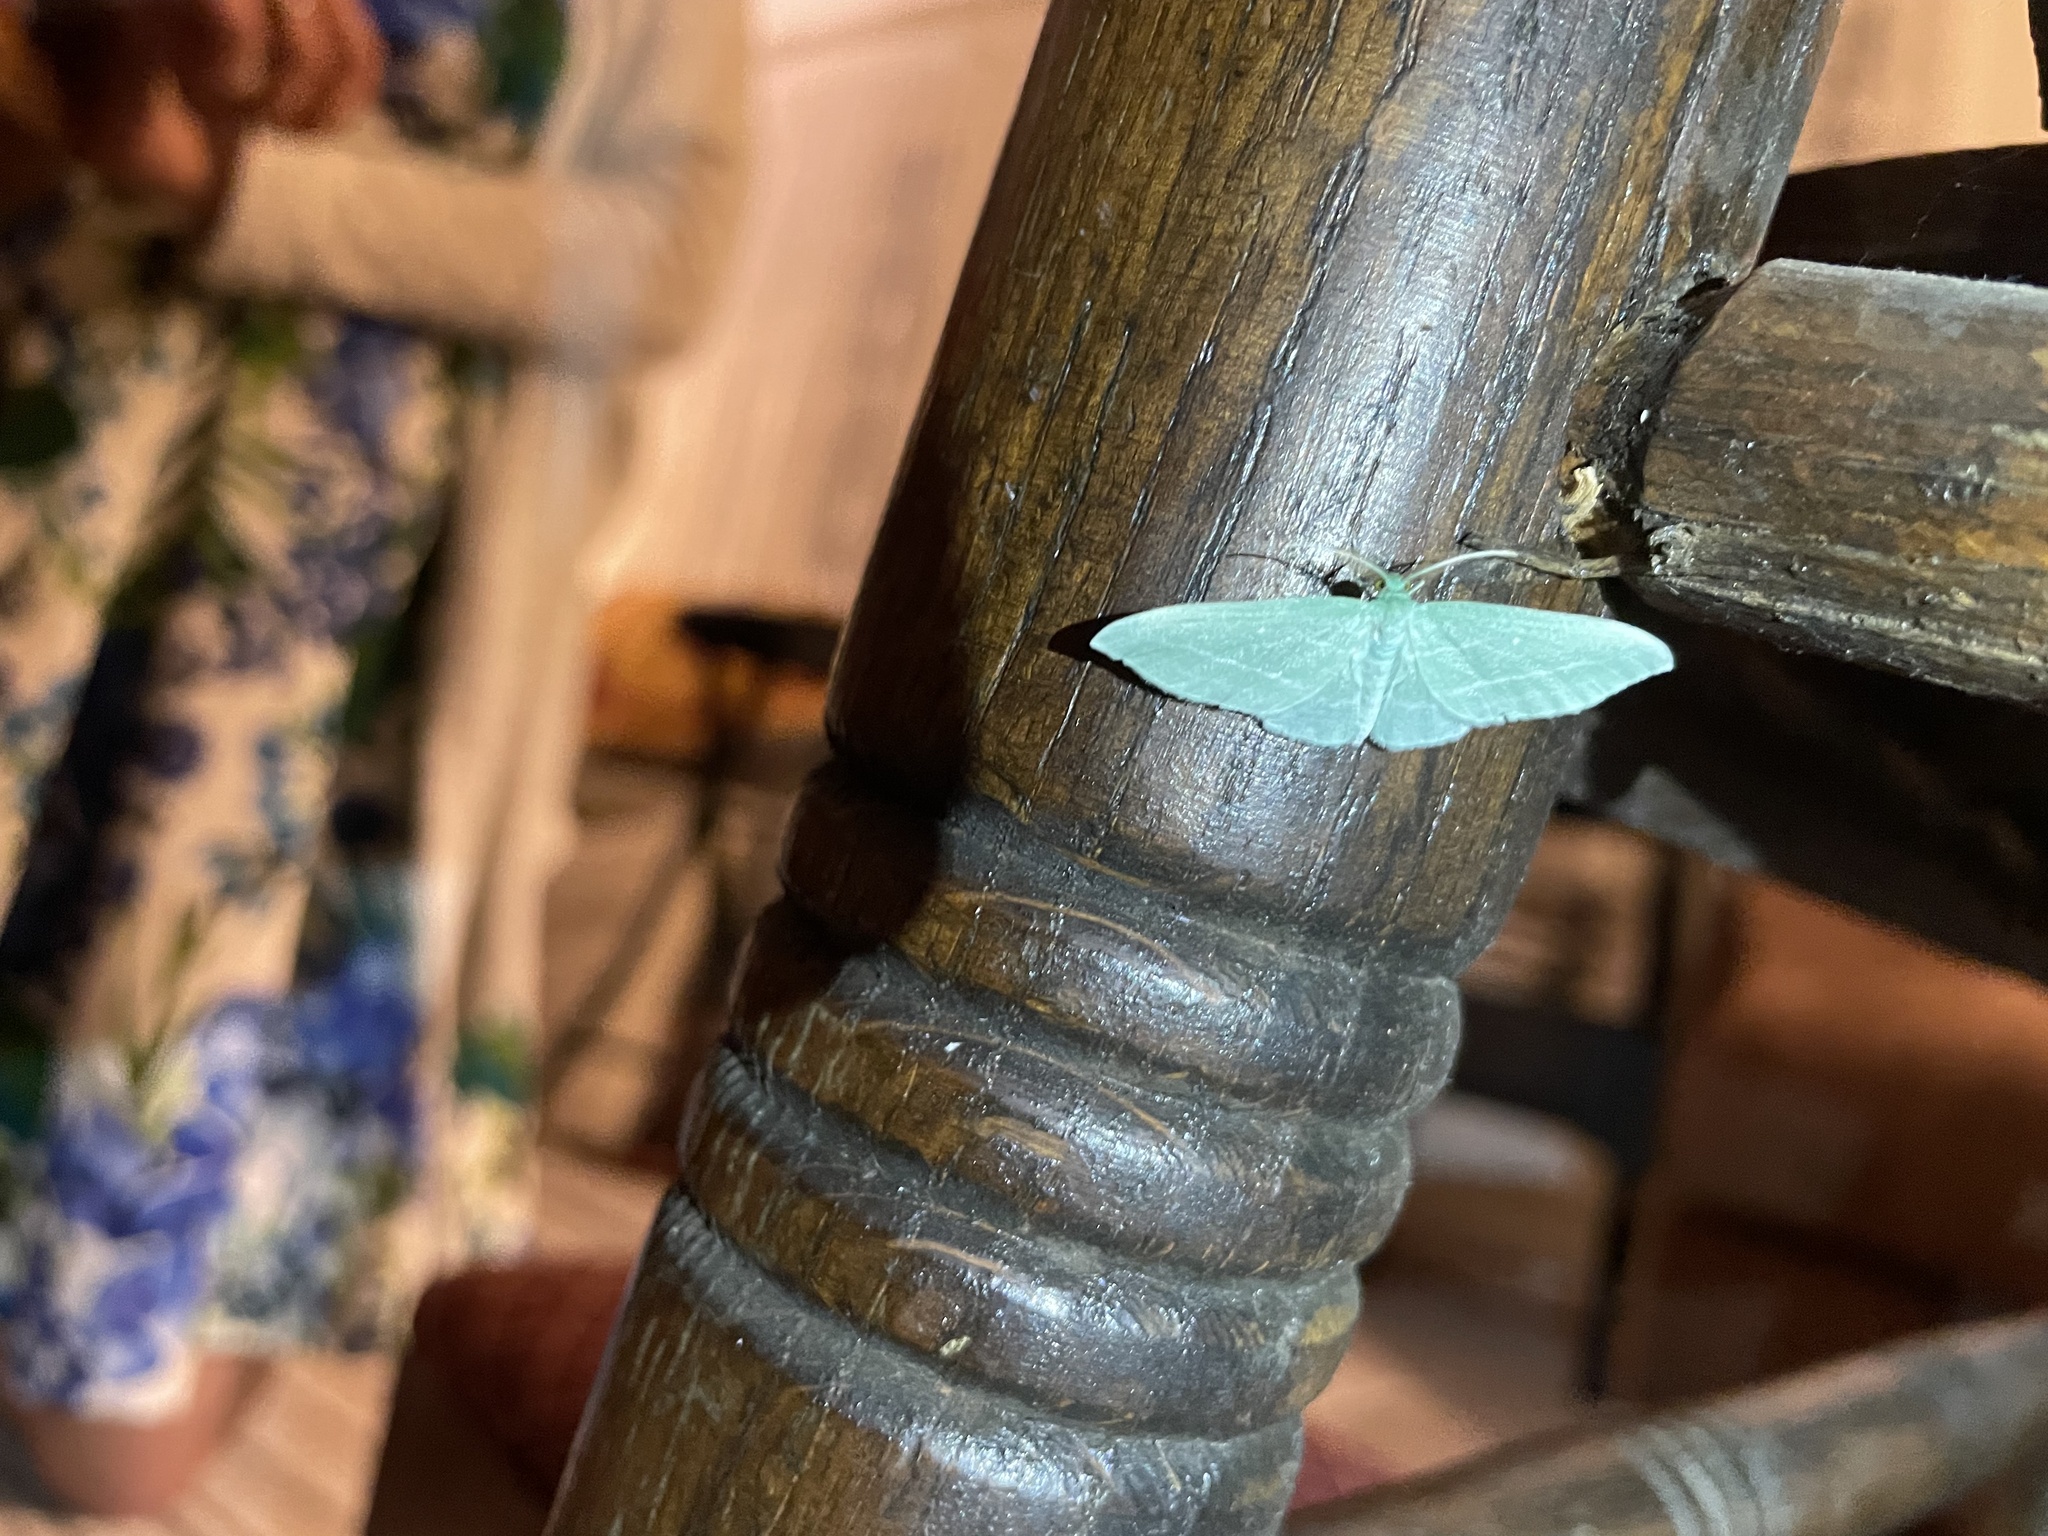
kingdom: Animalia
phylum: Arthropoda
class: Insecta
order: Lepidoptera
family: Geometridae
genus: Dyspteris
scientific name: Dyspteris abortivaria
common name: Bad-wing
